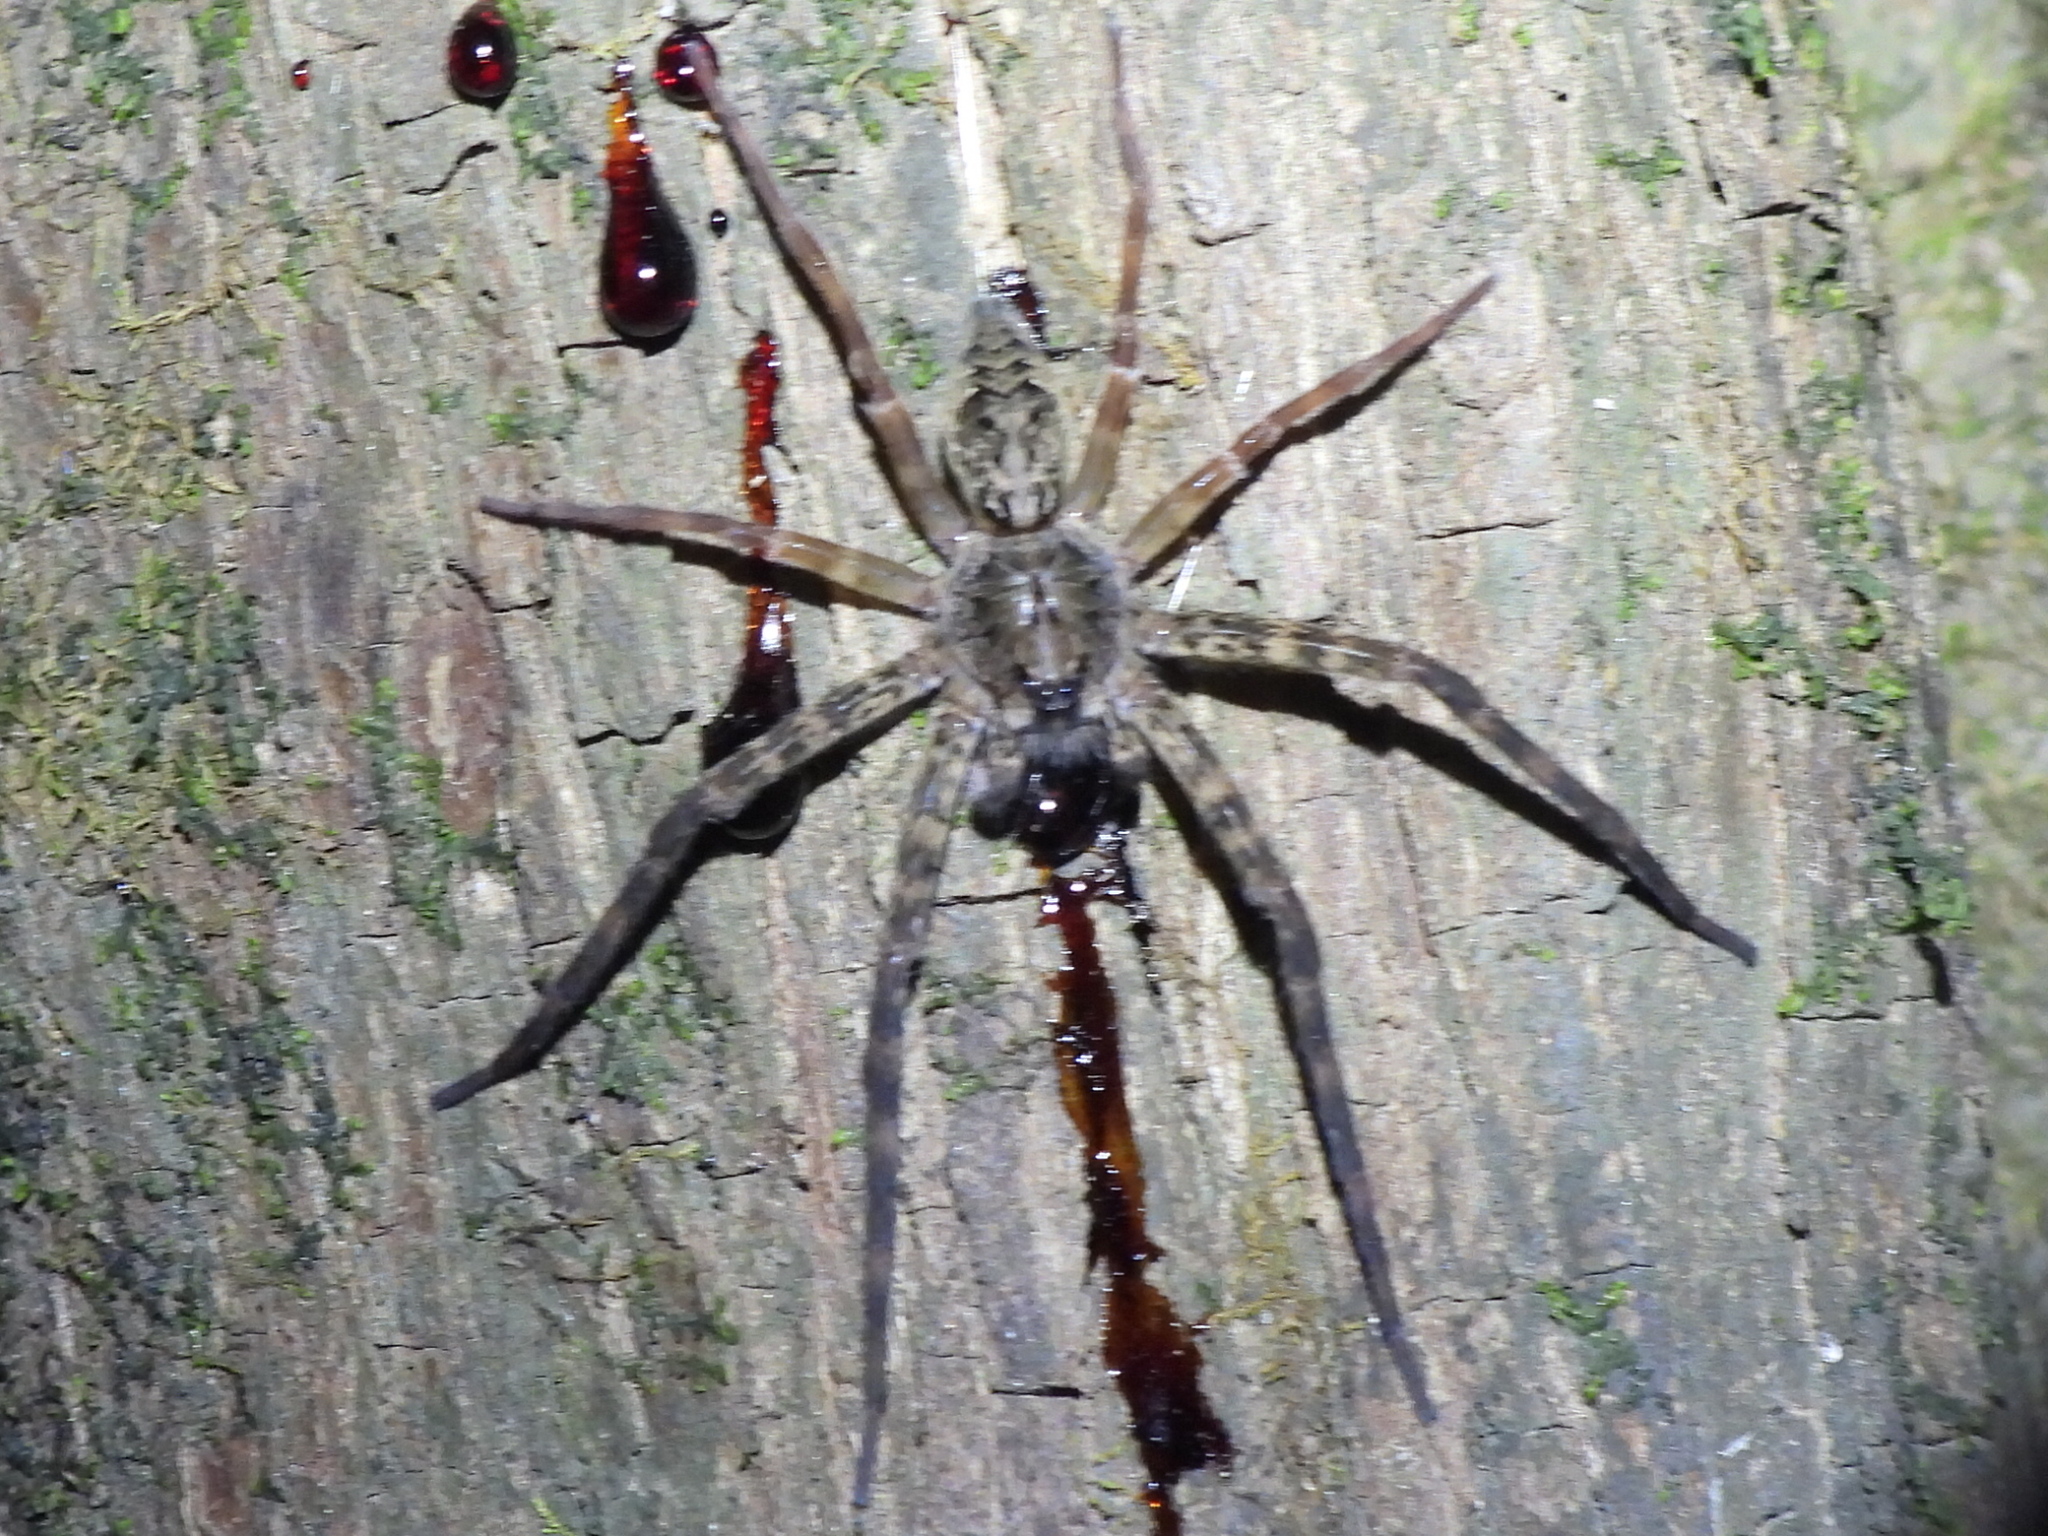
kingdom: Animalia
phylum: Arthropoda
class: Arachnida
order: Araneae
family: Pisauridae
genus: Dolomedes
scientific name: Dolomedes tenebrosus
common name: Dark fishing spider
